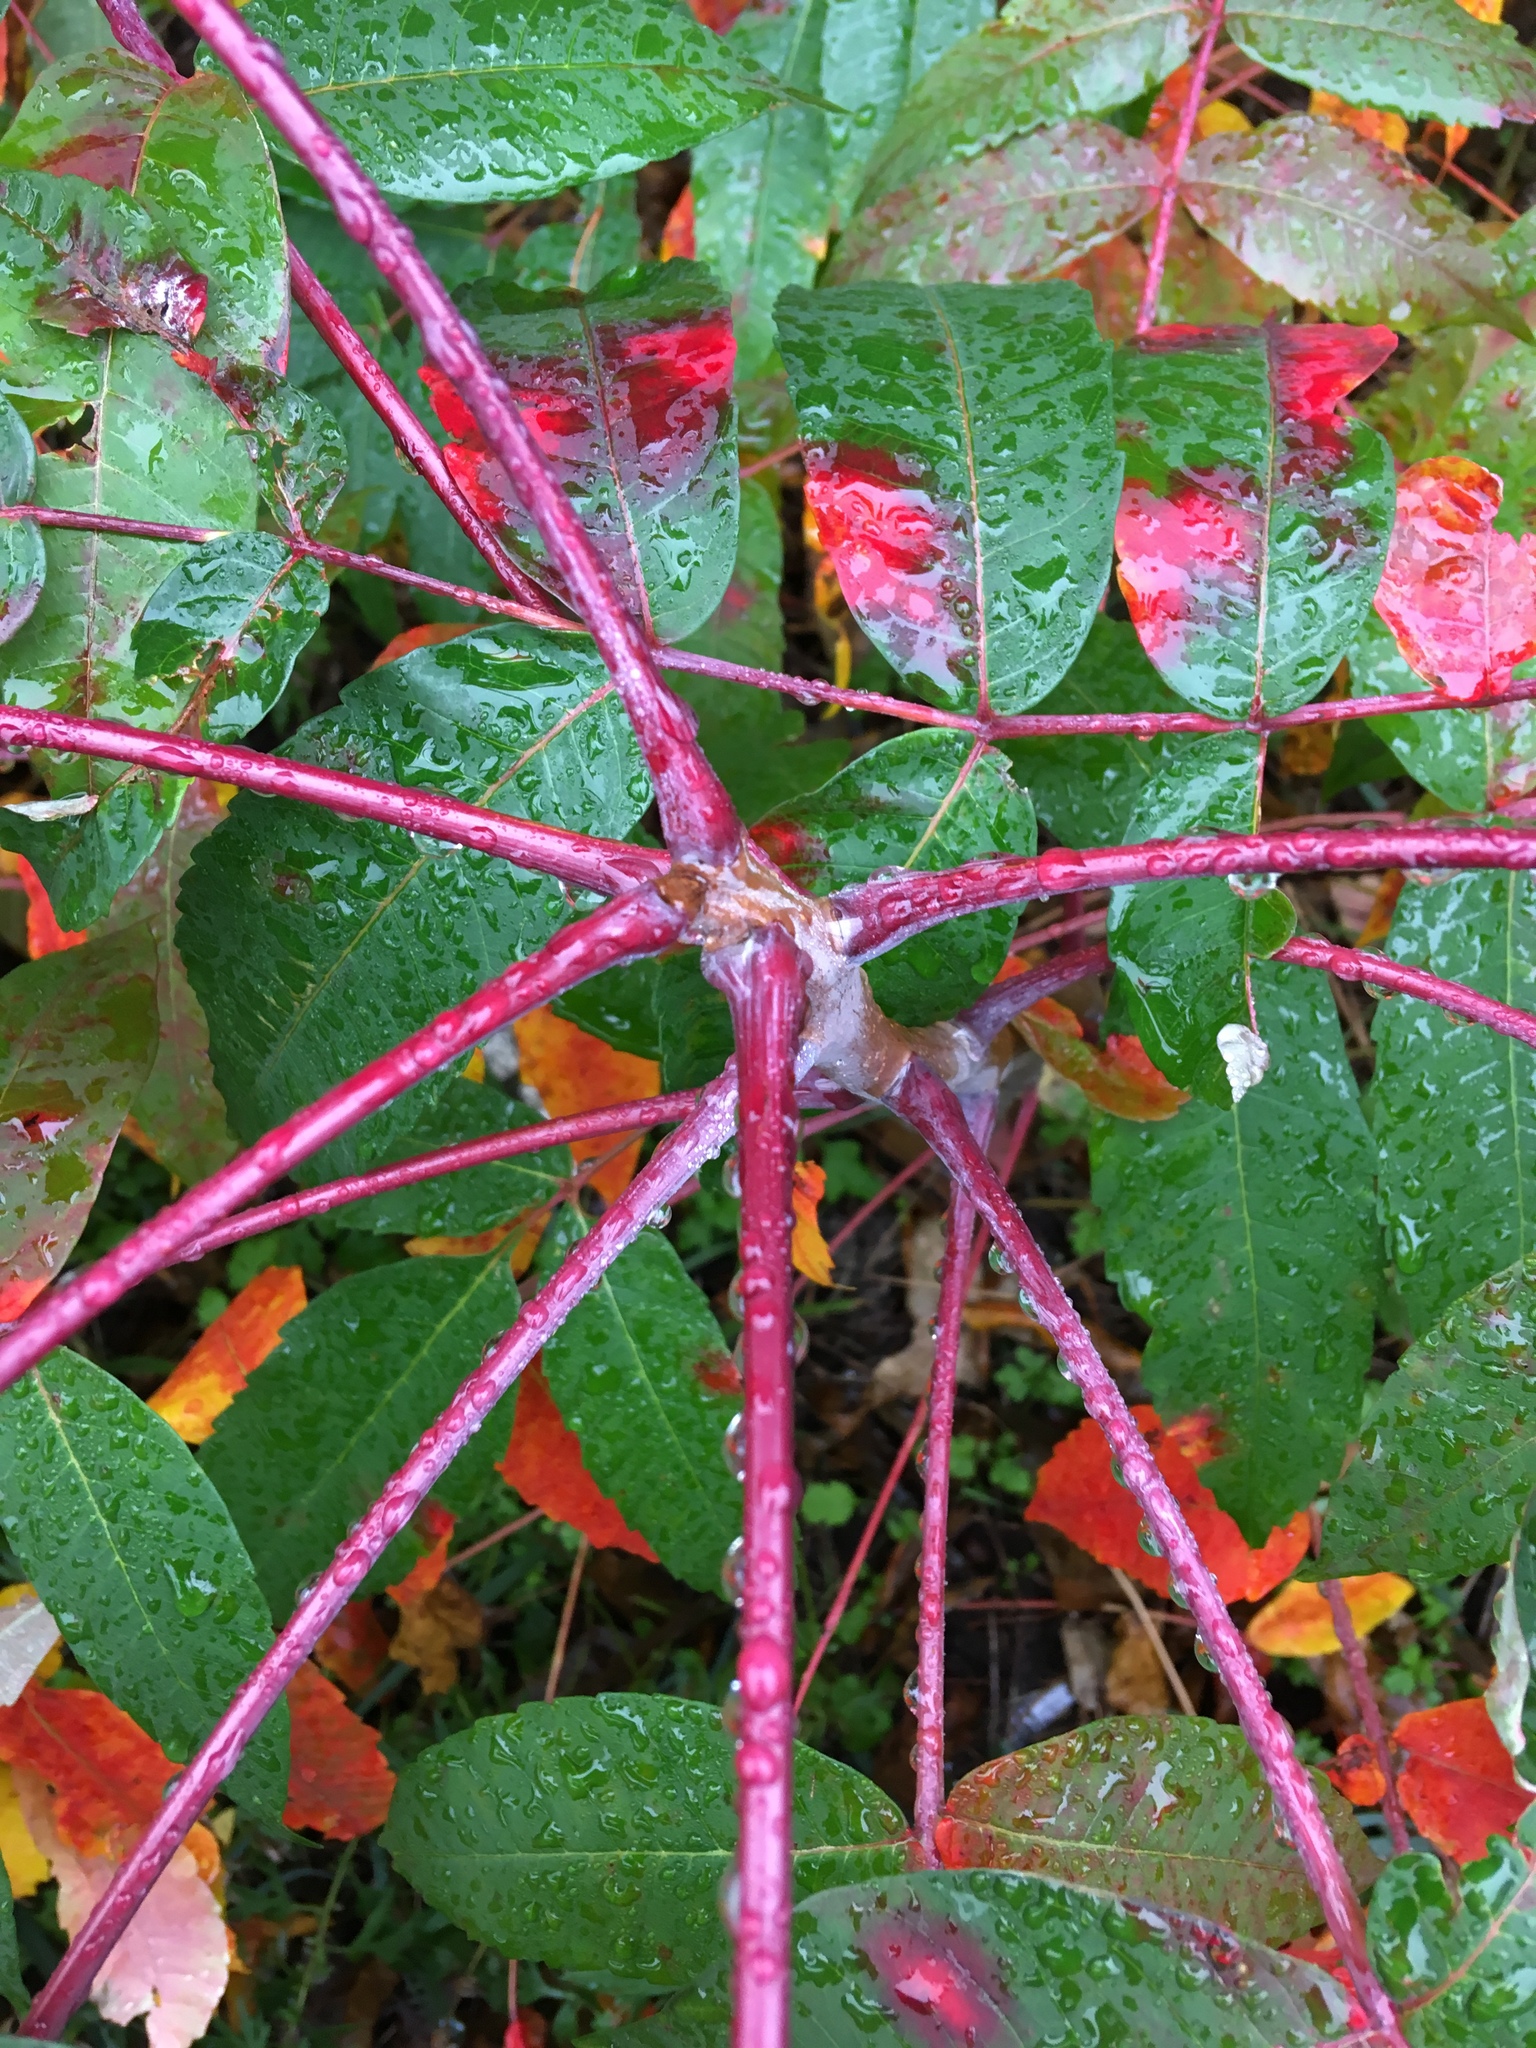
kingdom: Plantae
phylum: Tracheophyta
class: Magnoliopsida
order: Sapindales
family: Anacardiaceae
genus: Rhus
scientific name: Rhus glabra
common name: Scarlet sumac
